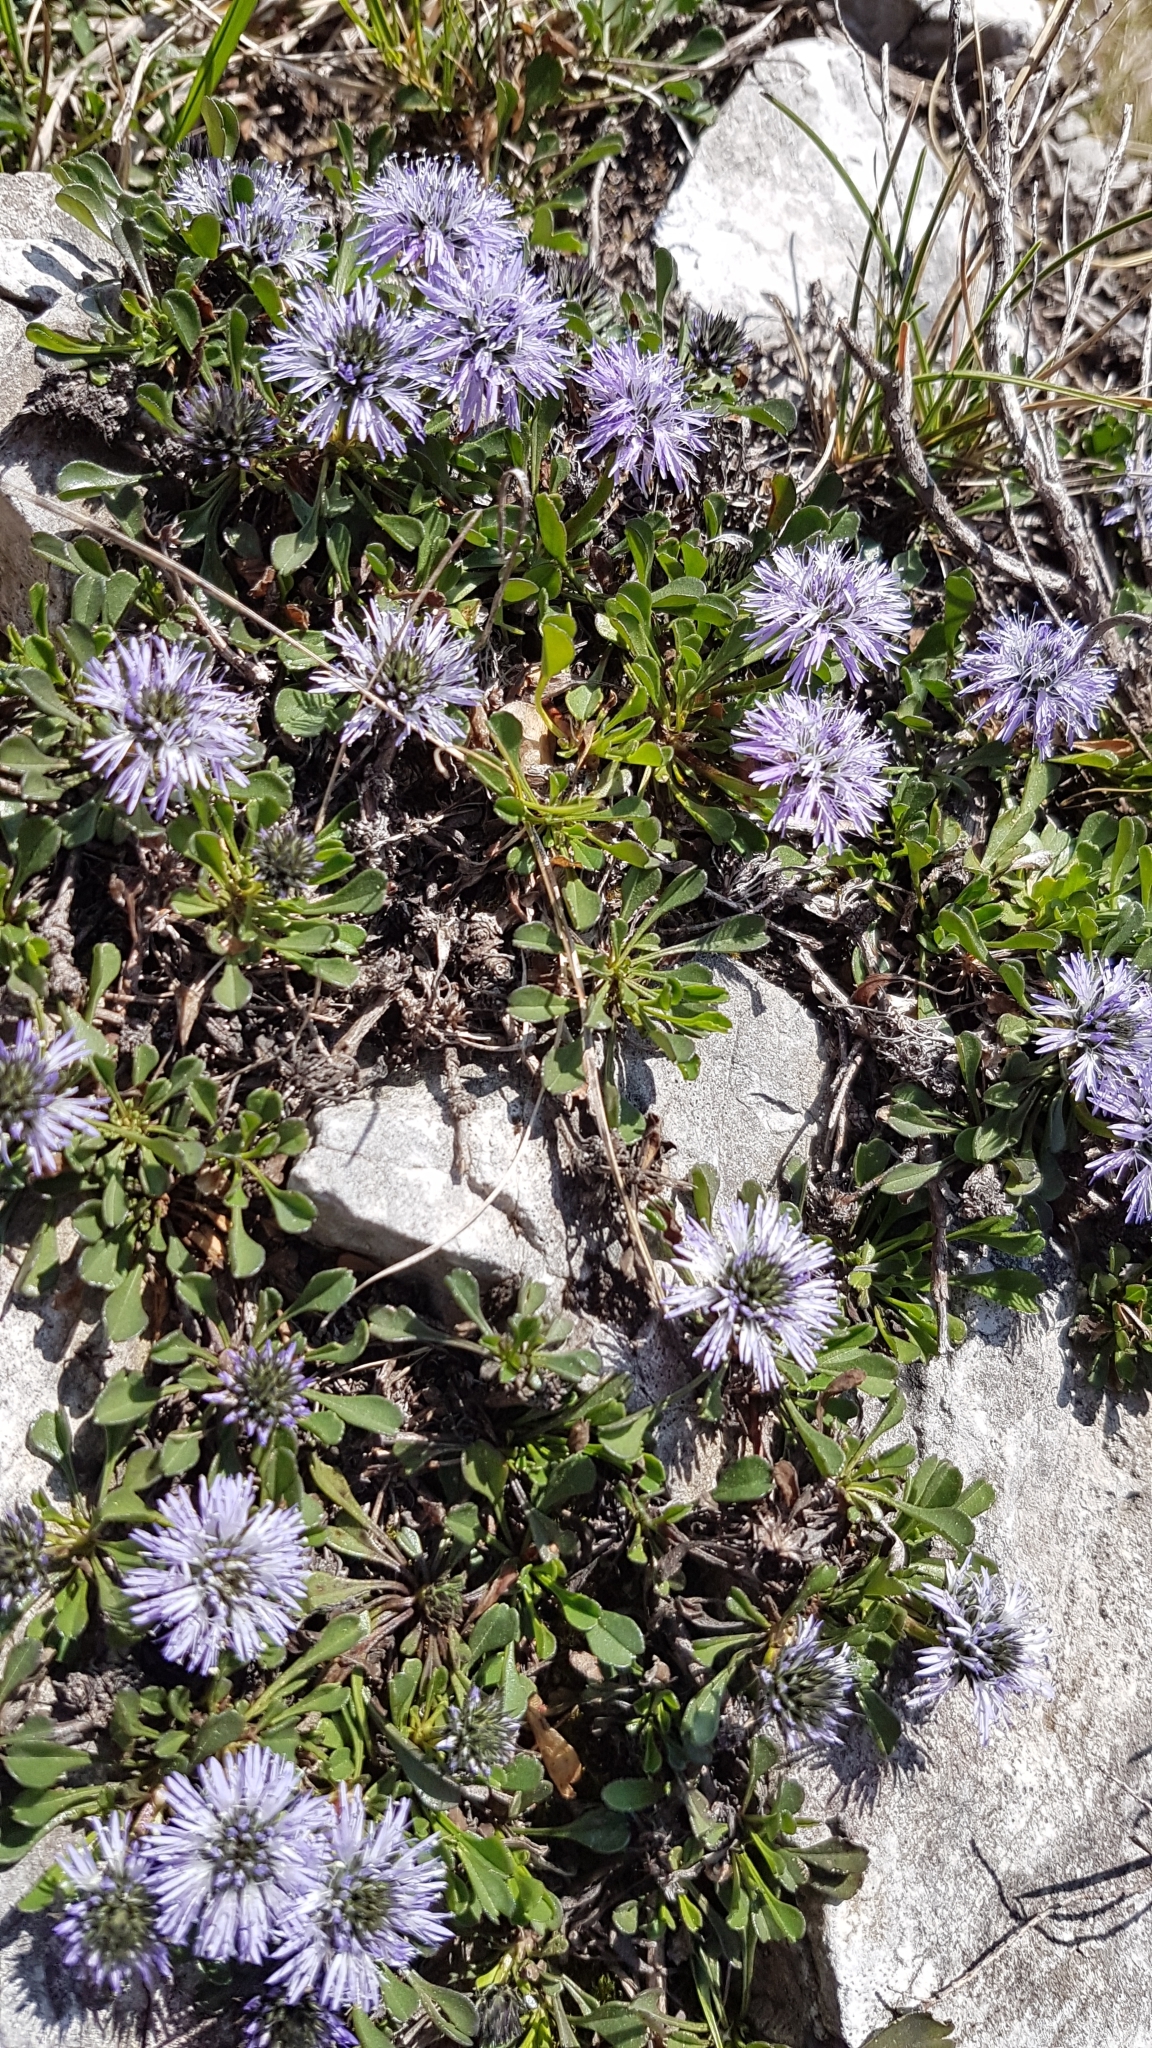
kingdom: Plantae
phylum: Tracheophyta
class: Magnoliopsida
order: Lamiales
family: Plantaginaceae
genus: Globularia
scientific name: Globularia cordifolia
